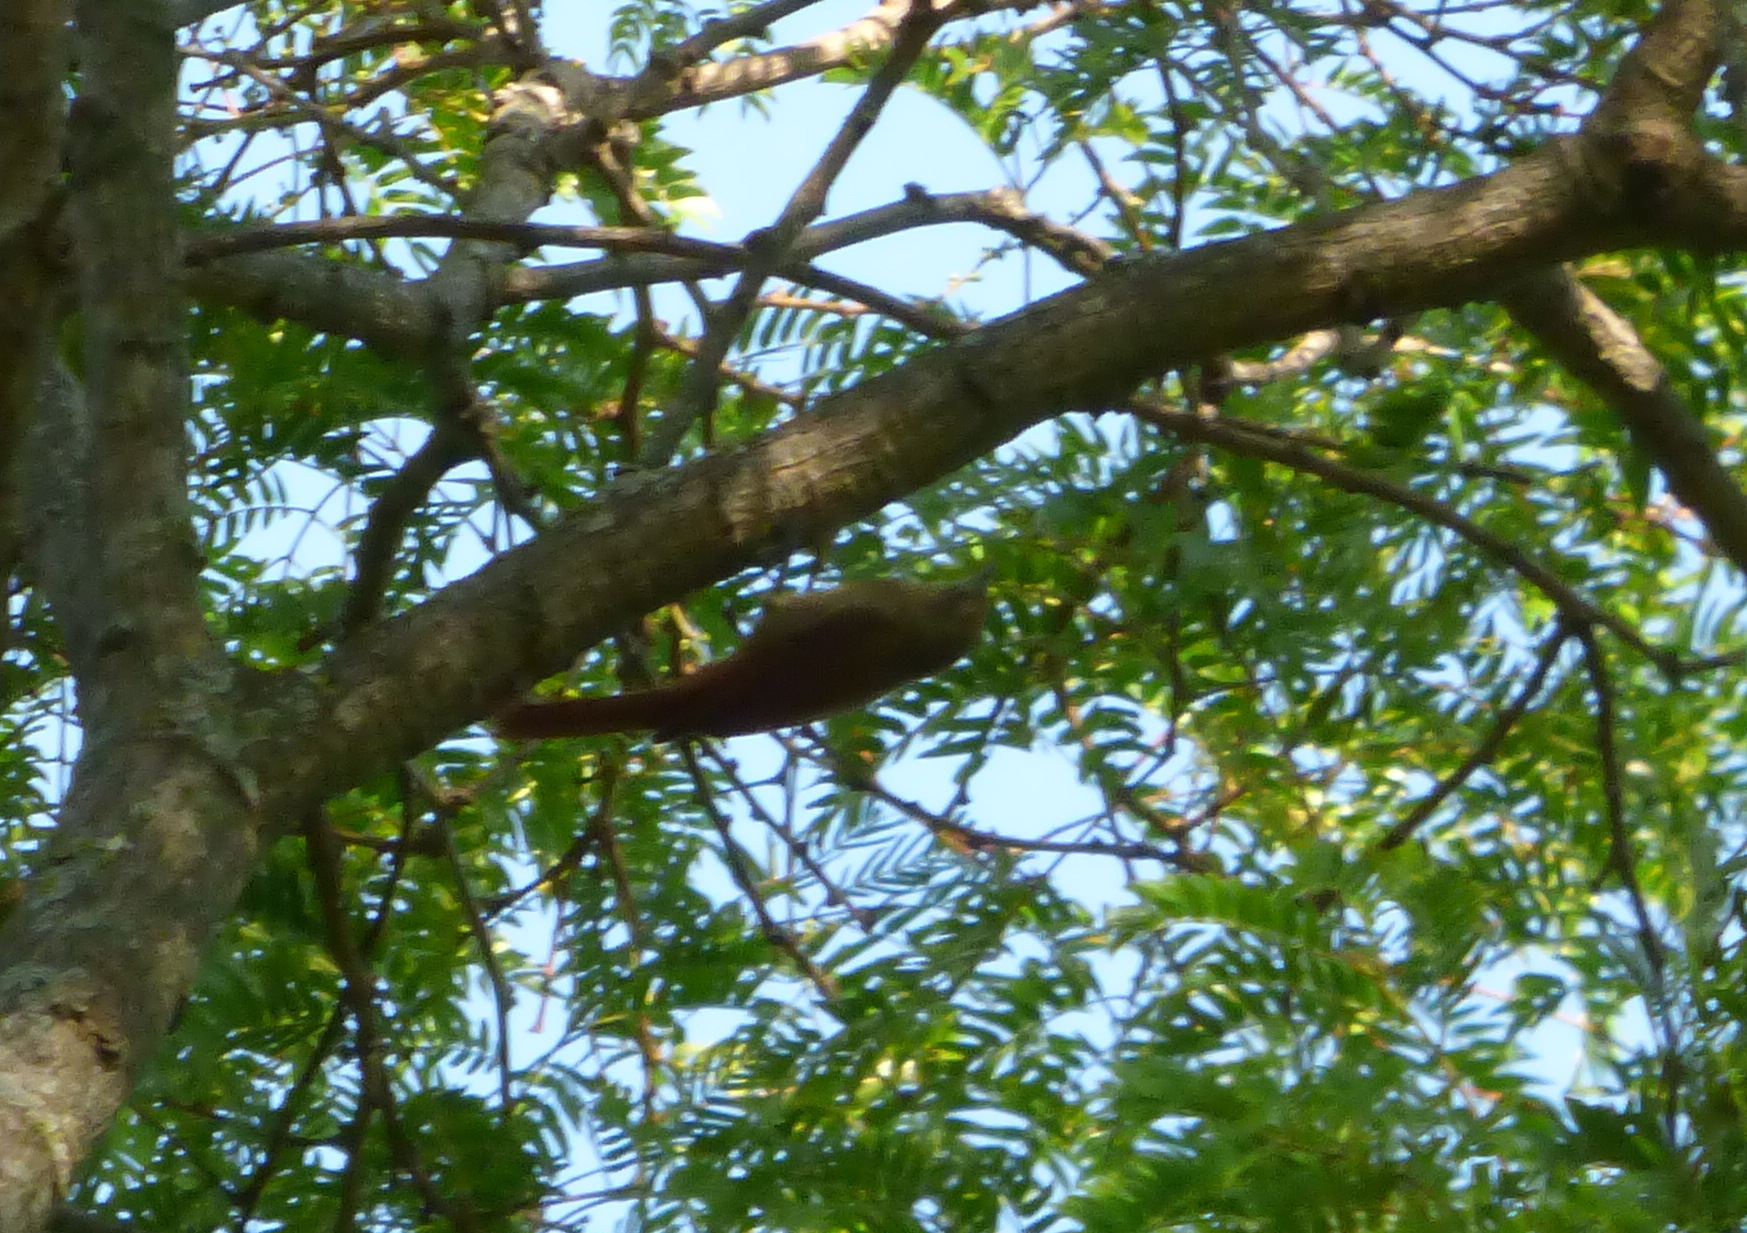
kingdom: Animalia
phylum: Chordata
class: Aves
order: Passeriformes
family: Furnariidae
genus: Sittasomus
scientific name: Sittasomus griseicapillus
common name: Olivaceous woodcreeper
